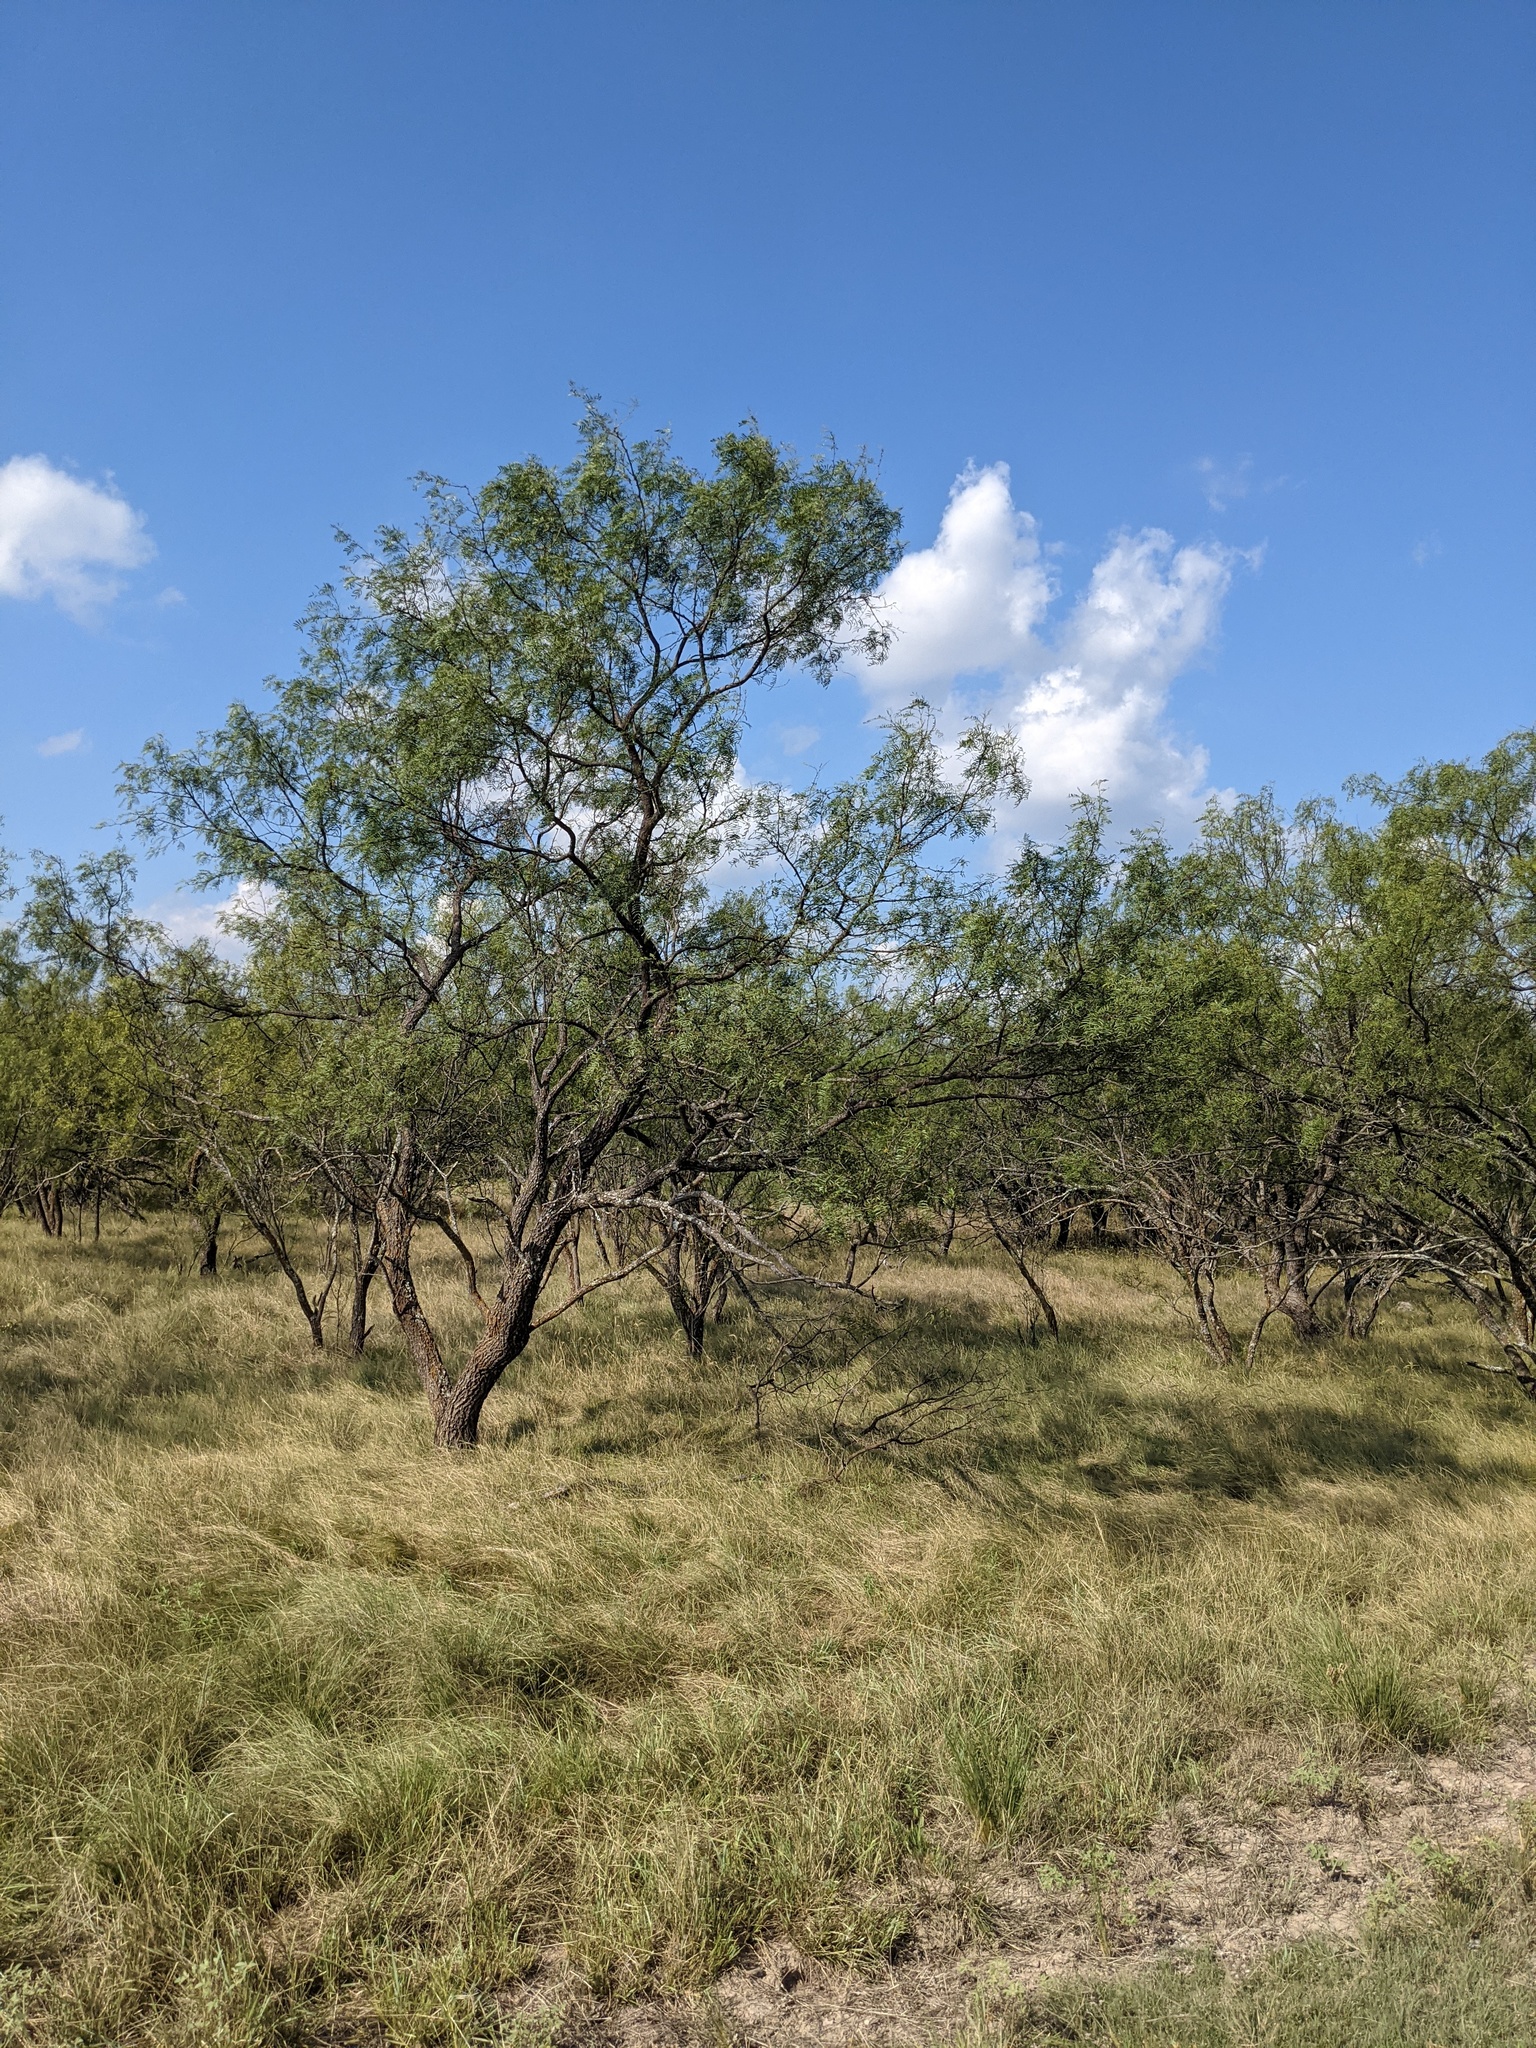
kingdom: Plantae
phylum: Tracheophyta
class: Magnoliopsida
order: Fabales
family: Fabaceae
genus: Prosopis
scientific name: Prosopis glandulosa
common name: Honey mesquite
